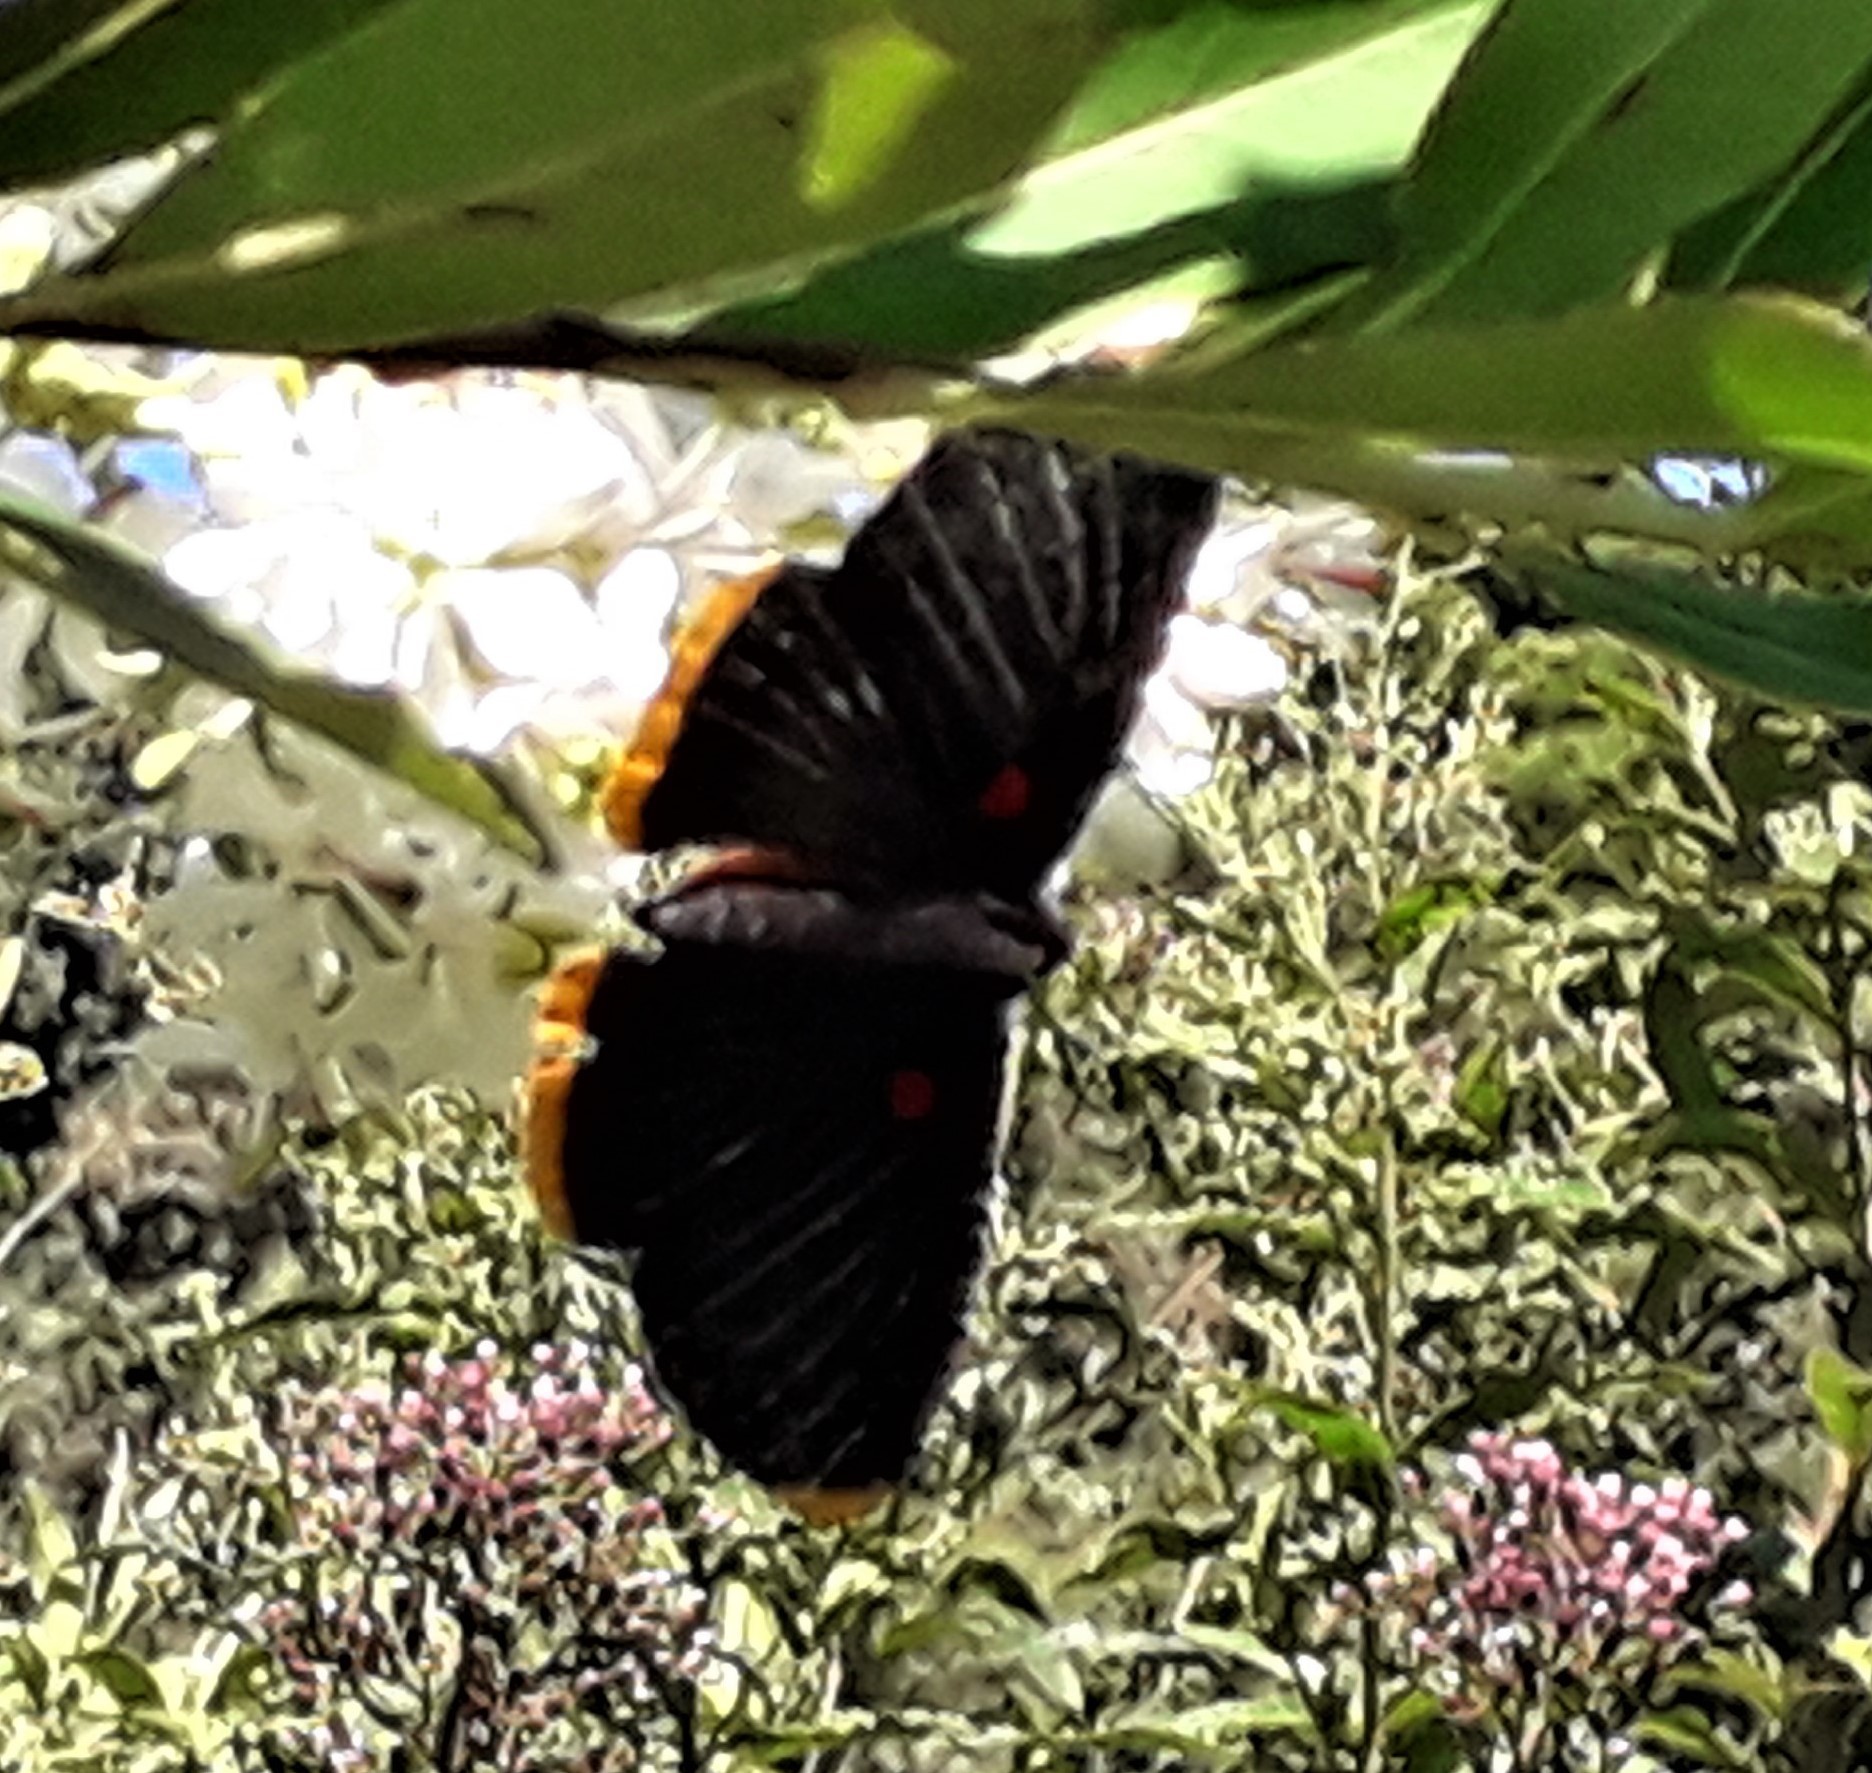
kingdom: Animalia
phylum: Arthropoda
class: Insecta
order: Lepidoptera
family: Lycaenidae
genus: Melanis
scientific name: Melanis smithiae
